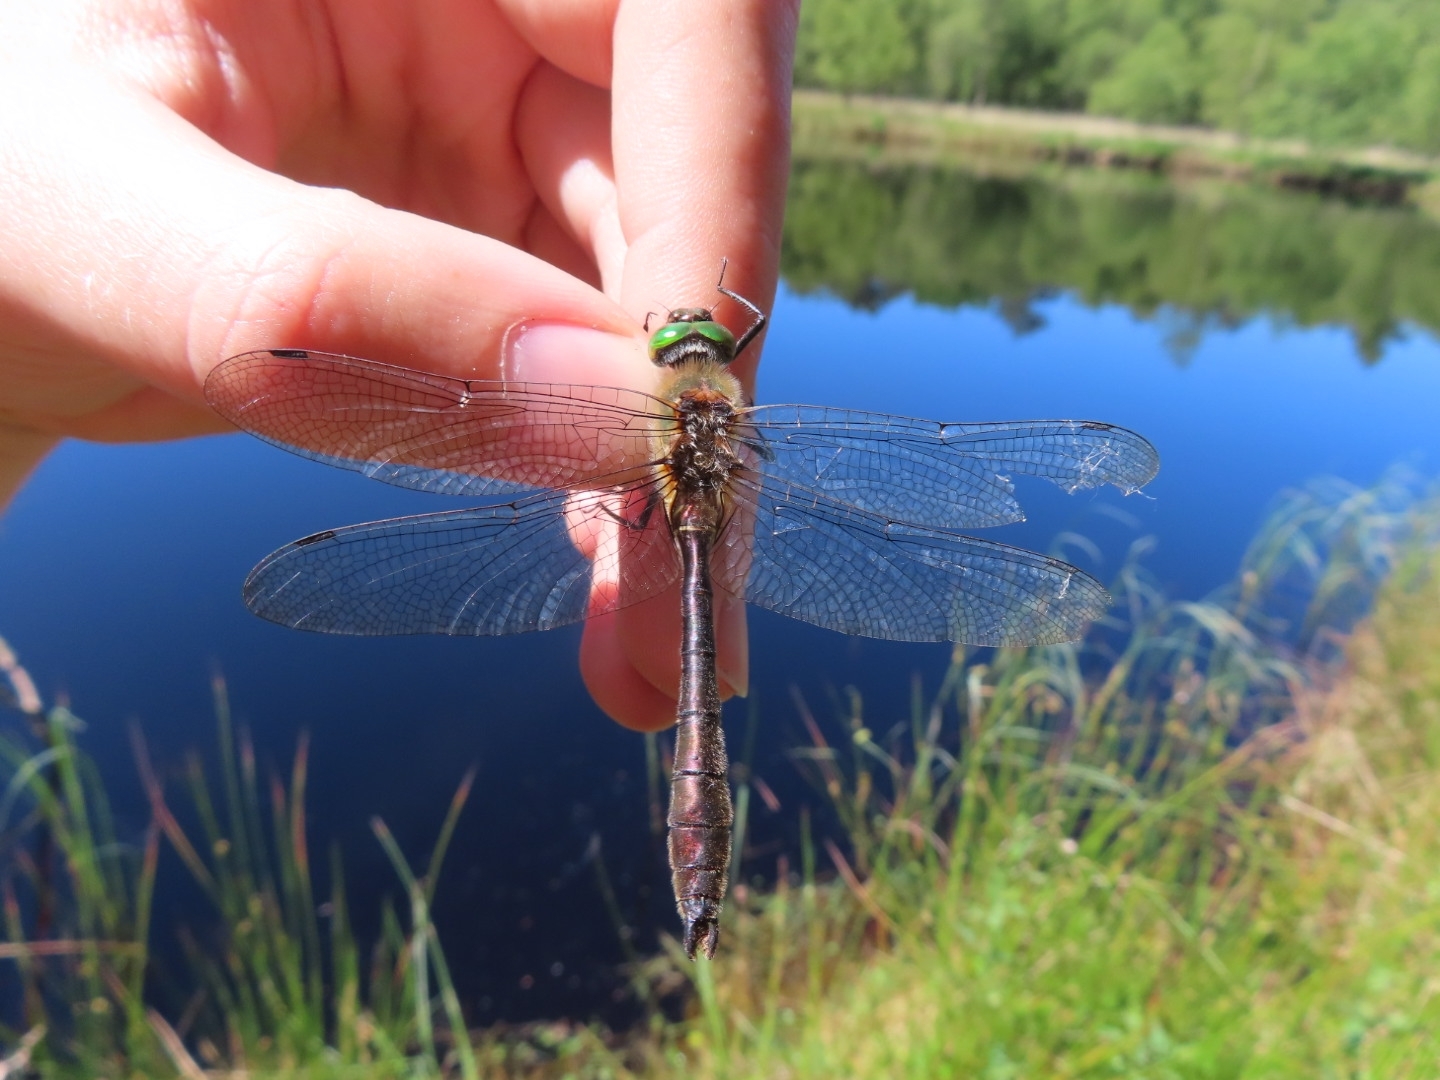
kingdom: Animalia
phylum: Arthropoda
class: Insecta
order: Odonata
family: Corduliidae
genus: Cordulia
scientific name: Cordulia aenea
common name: Downy emerald
